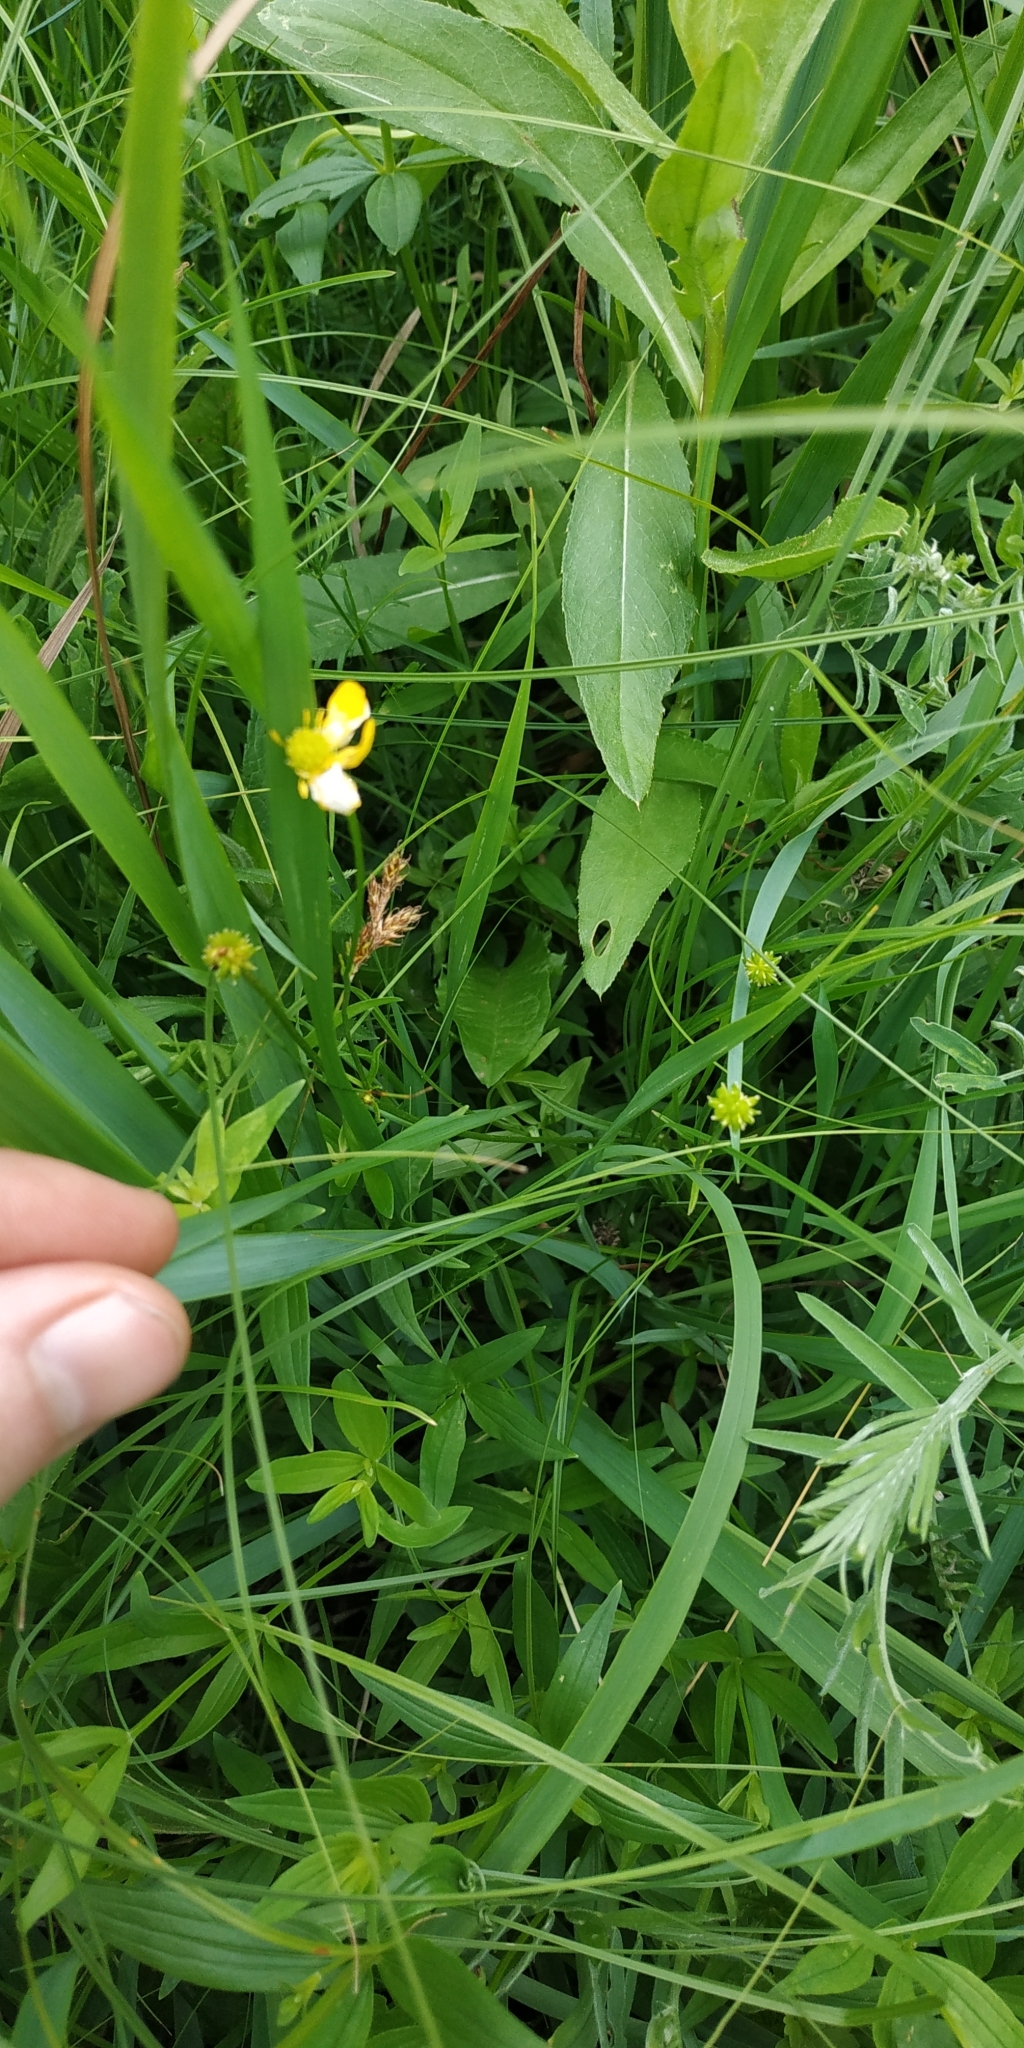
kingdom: Plantae
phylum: Tracheophyta
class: Magnoliopsida
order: Ranunculales
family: Ranunculaceae
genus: Ranunculus
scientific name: Ranunculus acris
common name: Meadow buttercup
